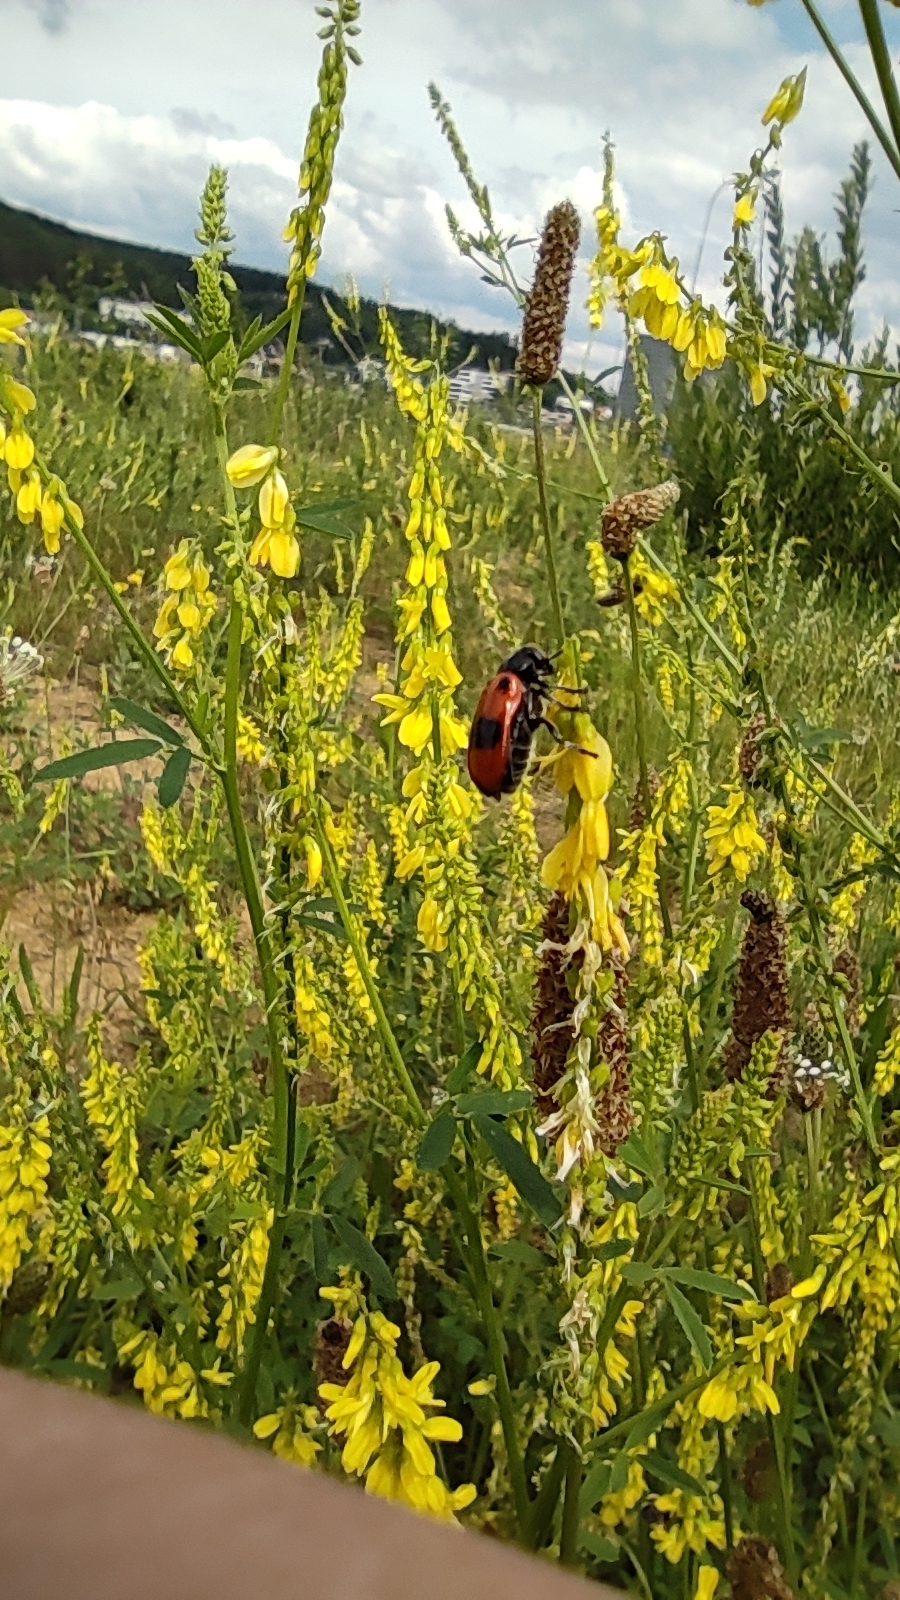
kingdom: Animalia
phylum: Arthropoda
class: Insecta
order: Coleoptera
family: Chrysomelidae
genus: Clytra
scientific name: Clytra laeviuscula
